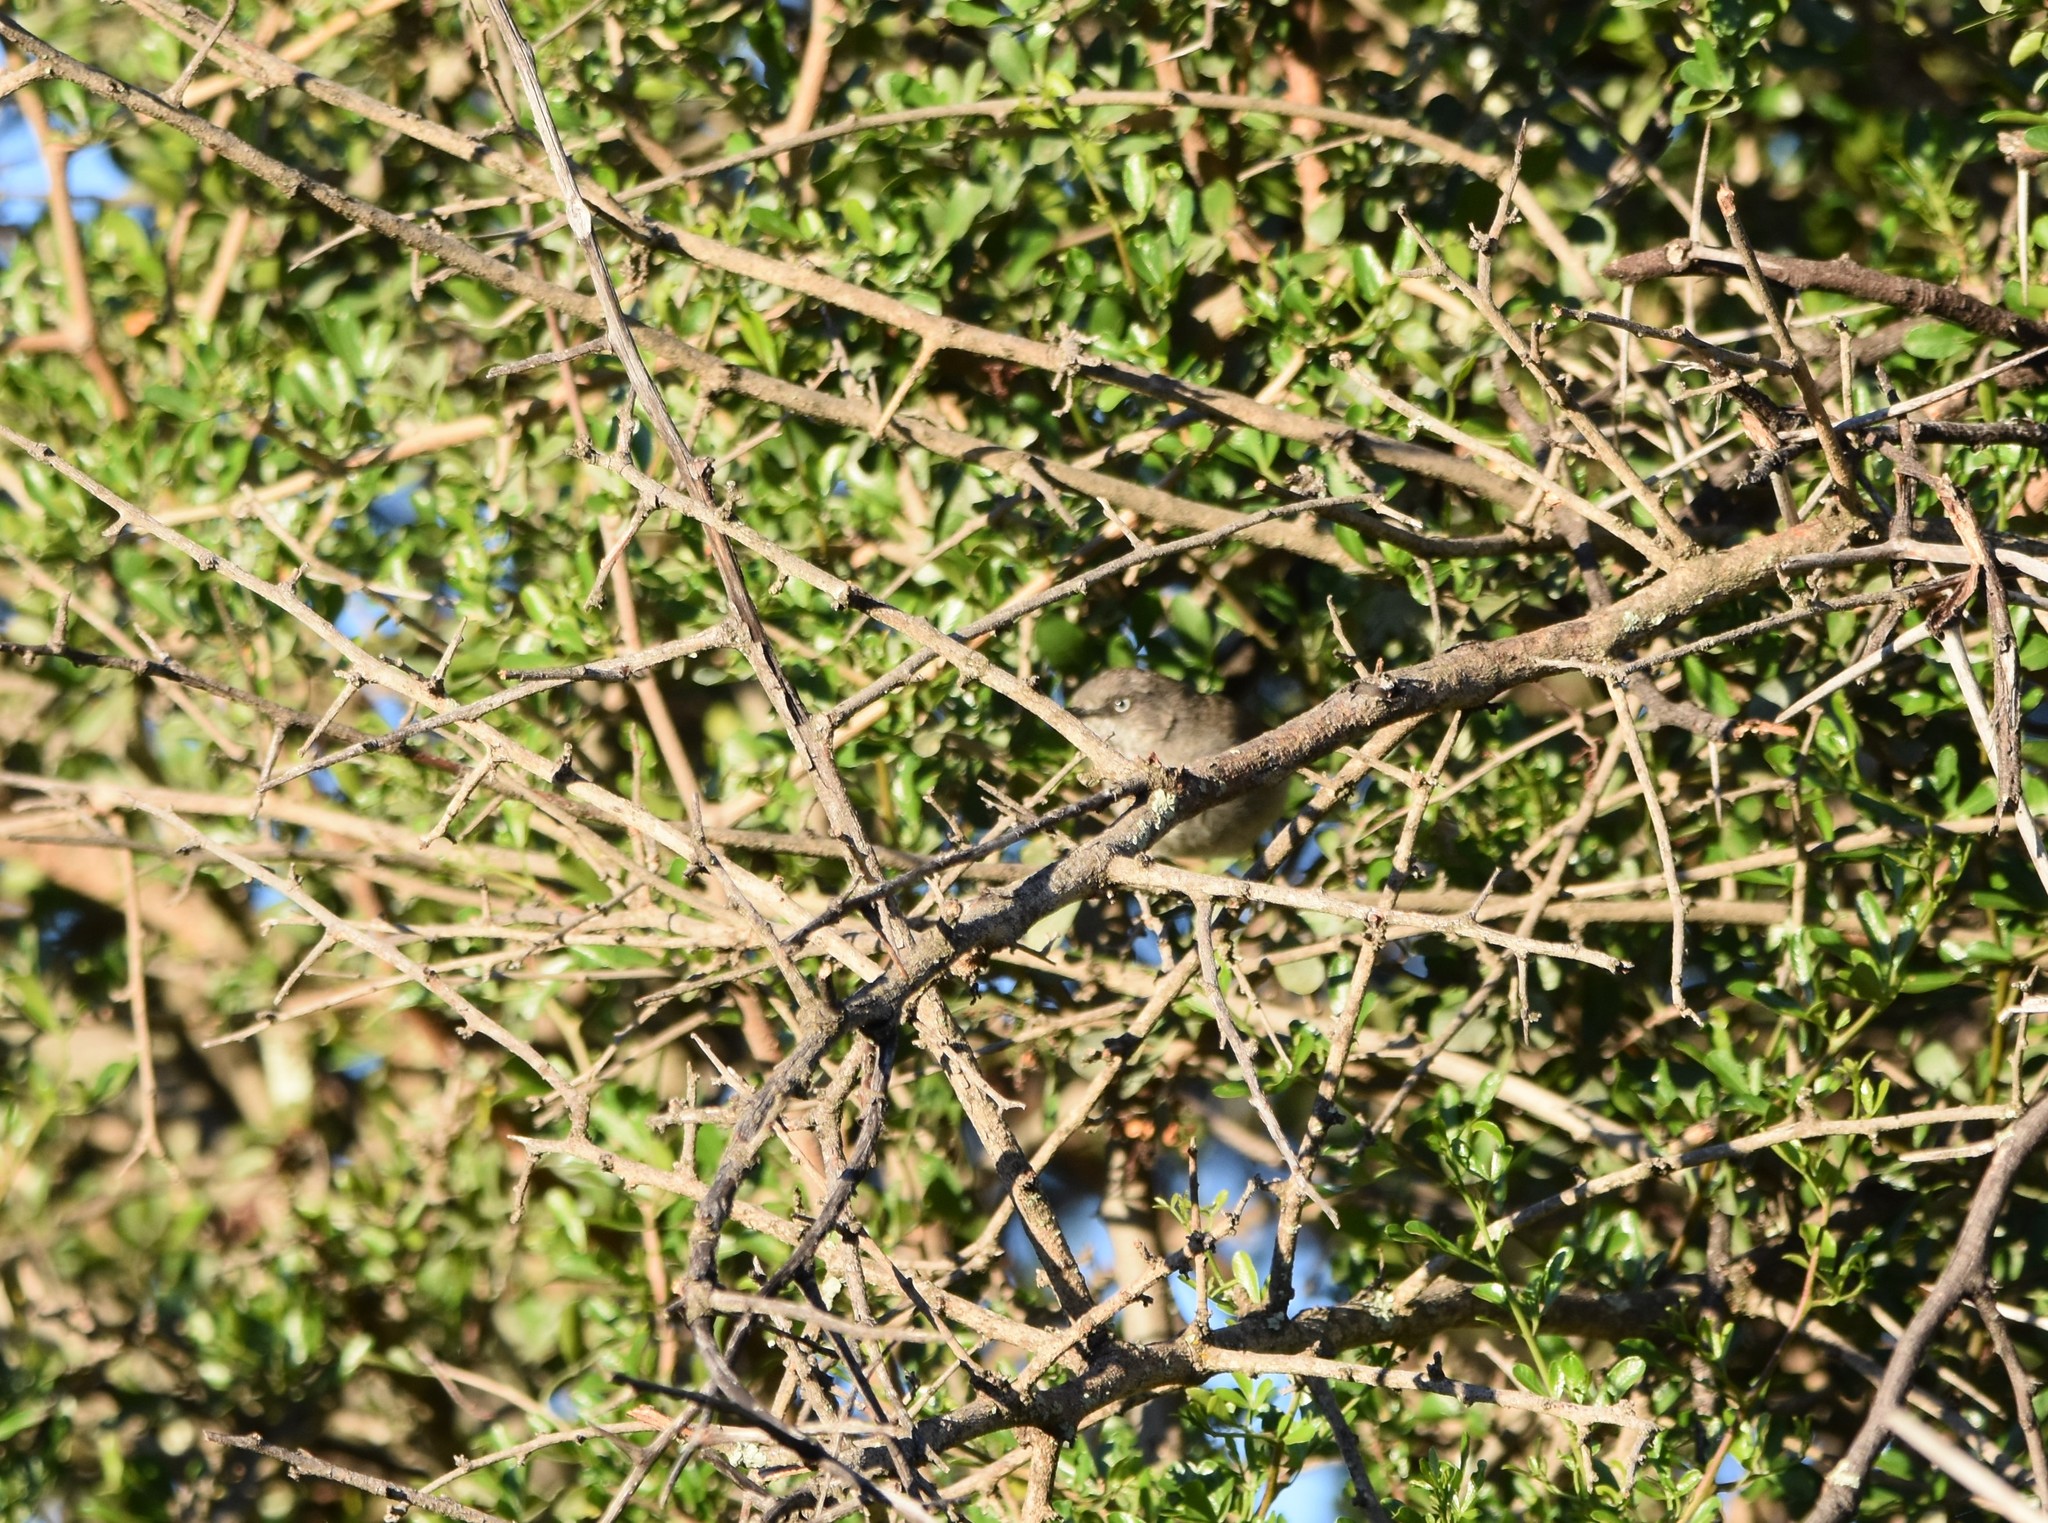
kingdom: Animalia
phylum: Chordata
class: Aves
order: Passeriformes
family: Sylviidae
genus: Curruca
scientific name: Curruca subcoerulea
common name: Chestnut-vented warbler
